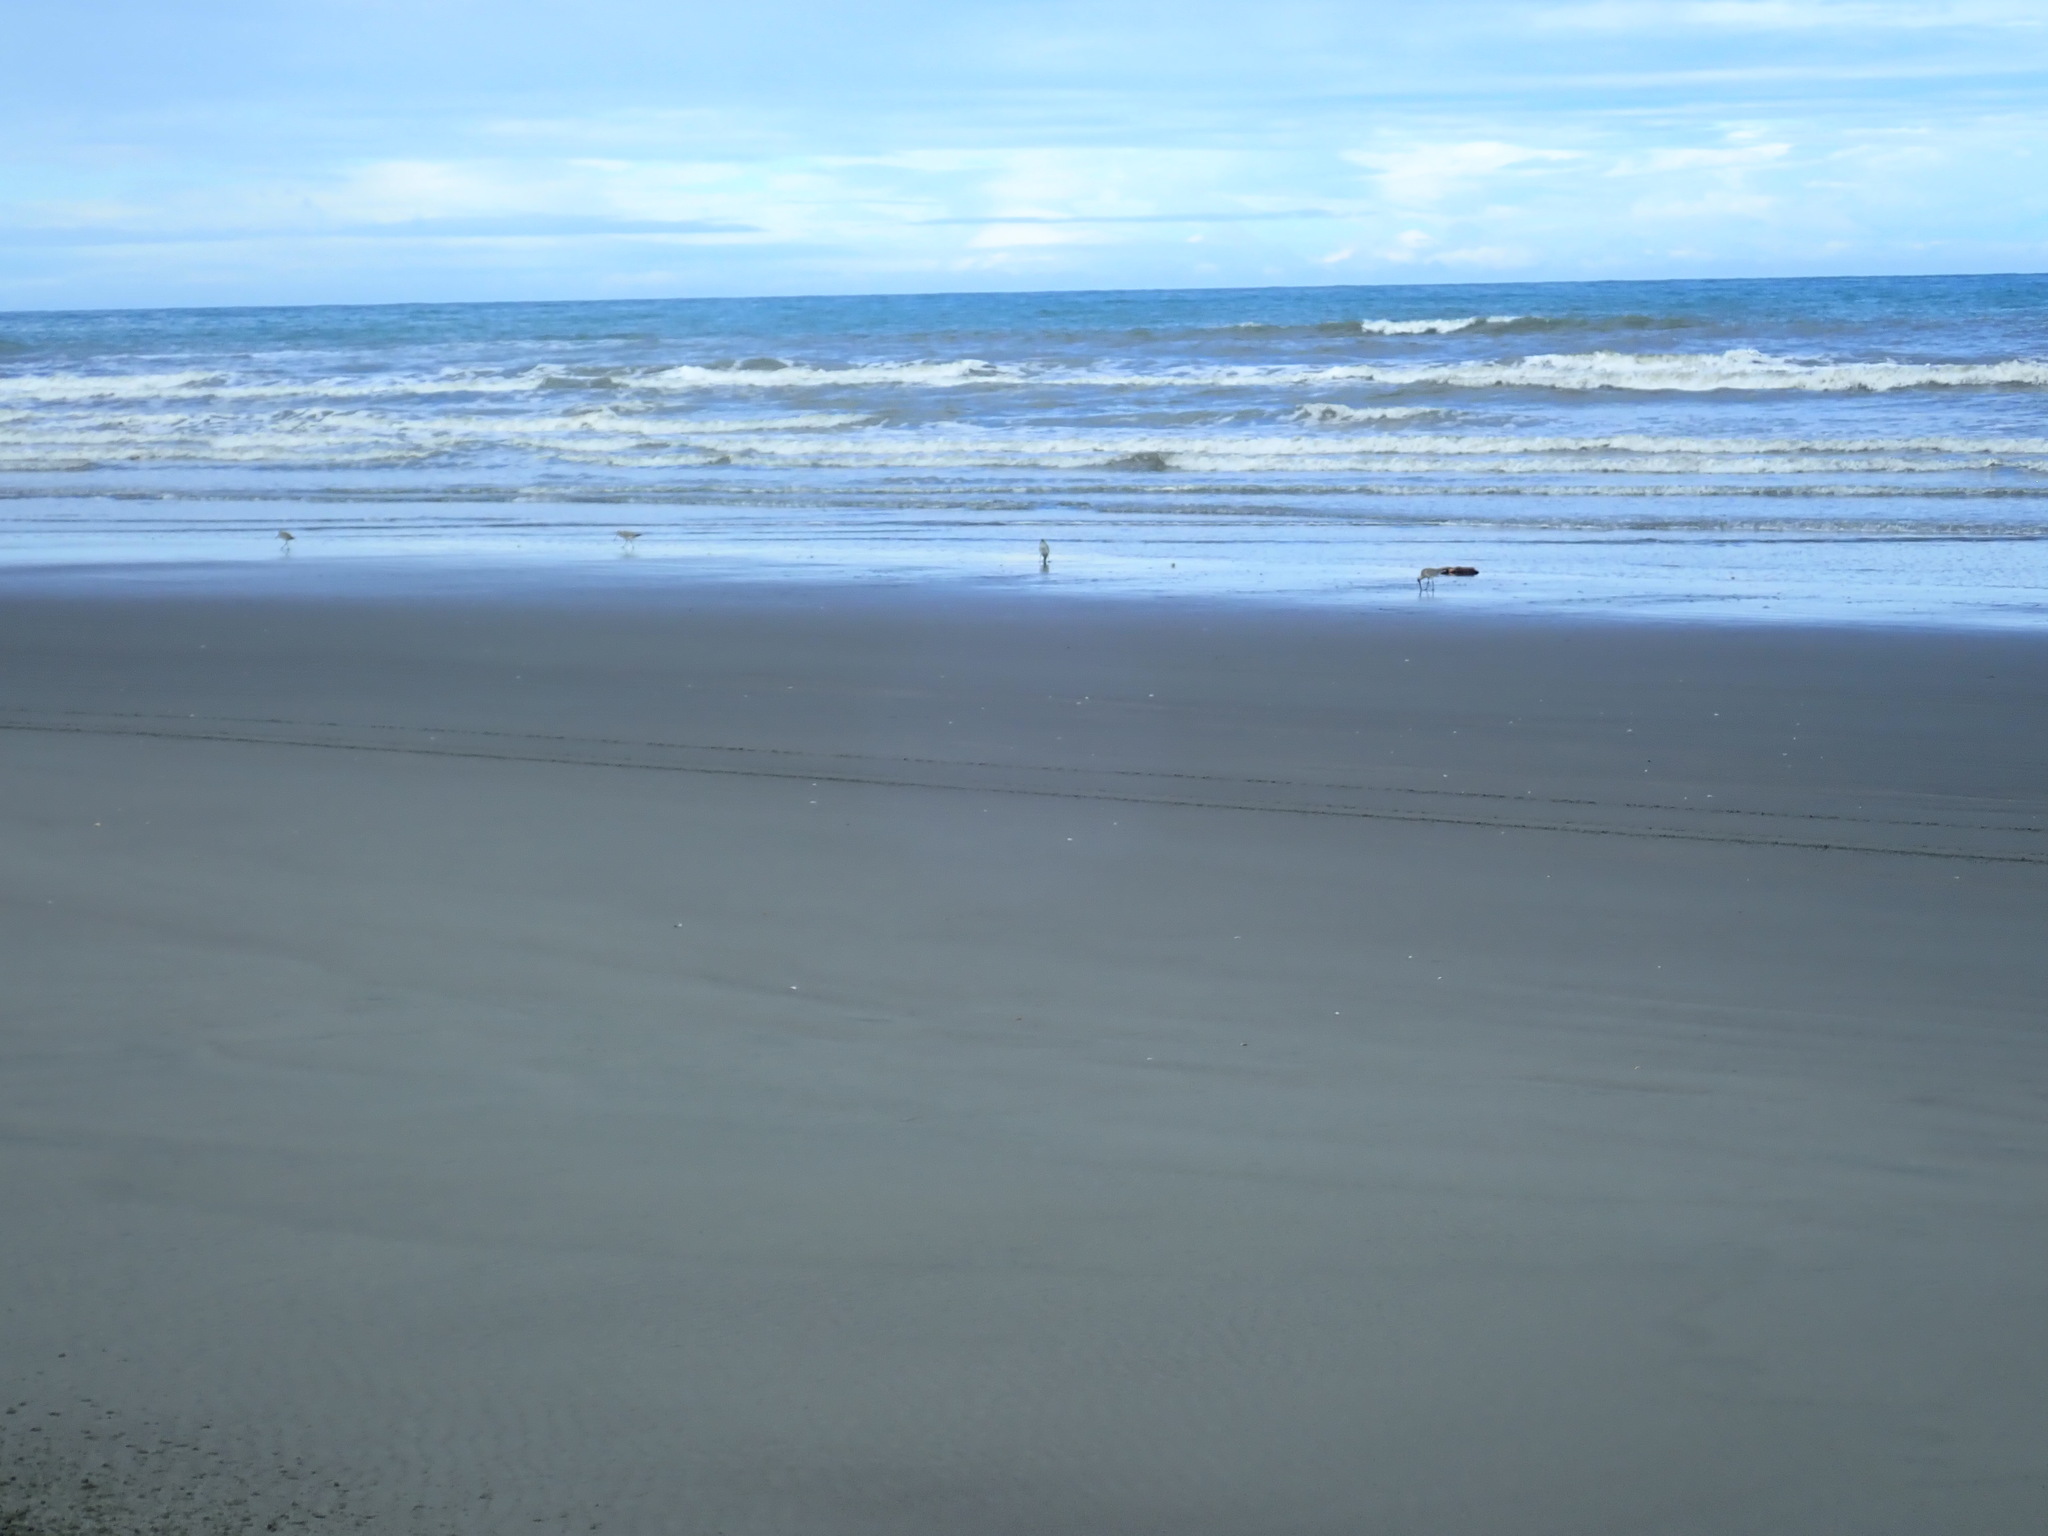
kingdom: Animalia
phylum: Chordata
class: Aves
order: Charadriiformes
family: Scolopacidae
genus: Limosa
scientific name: Limosa lapponica
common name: Bar-tailed godwit
